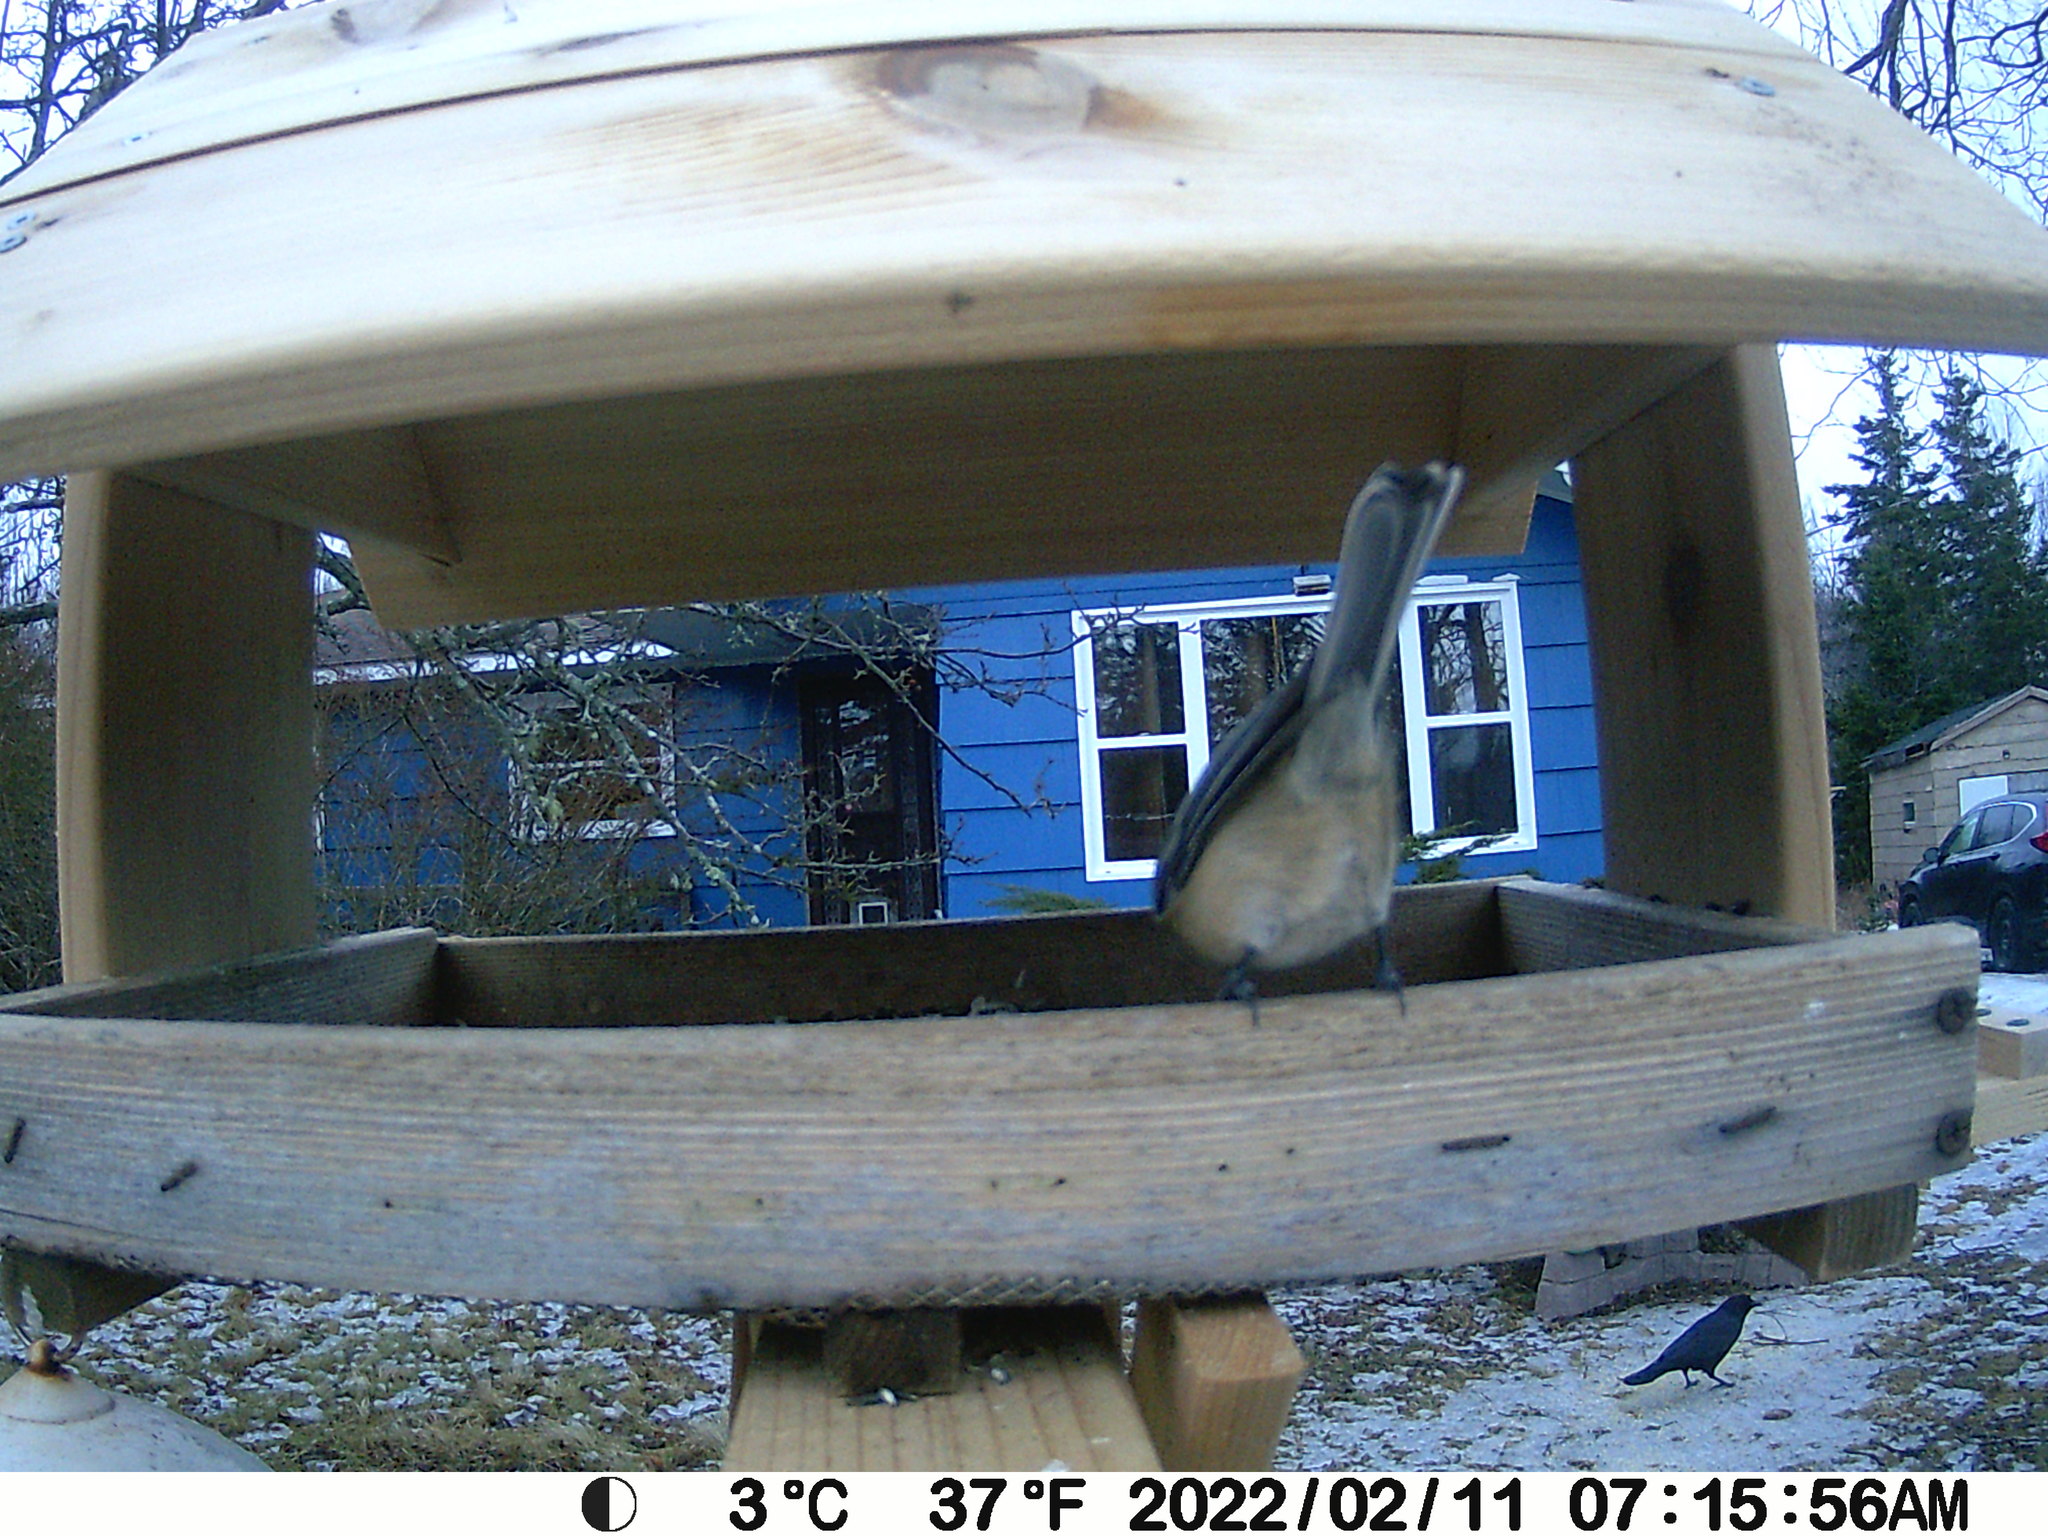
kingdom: Animalia
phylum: Chordata
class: Aves
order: Passeriformes
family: Corvidae
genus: Corvus
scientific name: Corvus brachyrhynchos
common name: American crow
